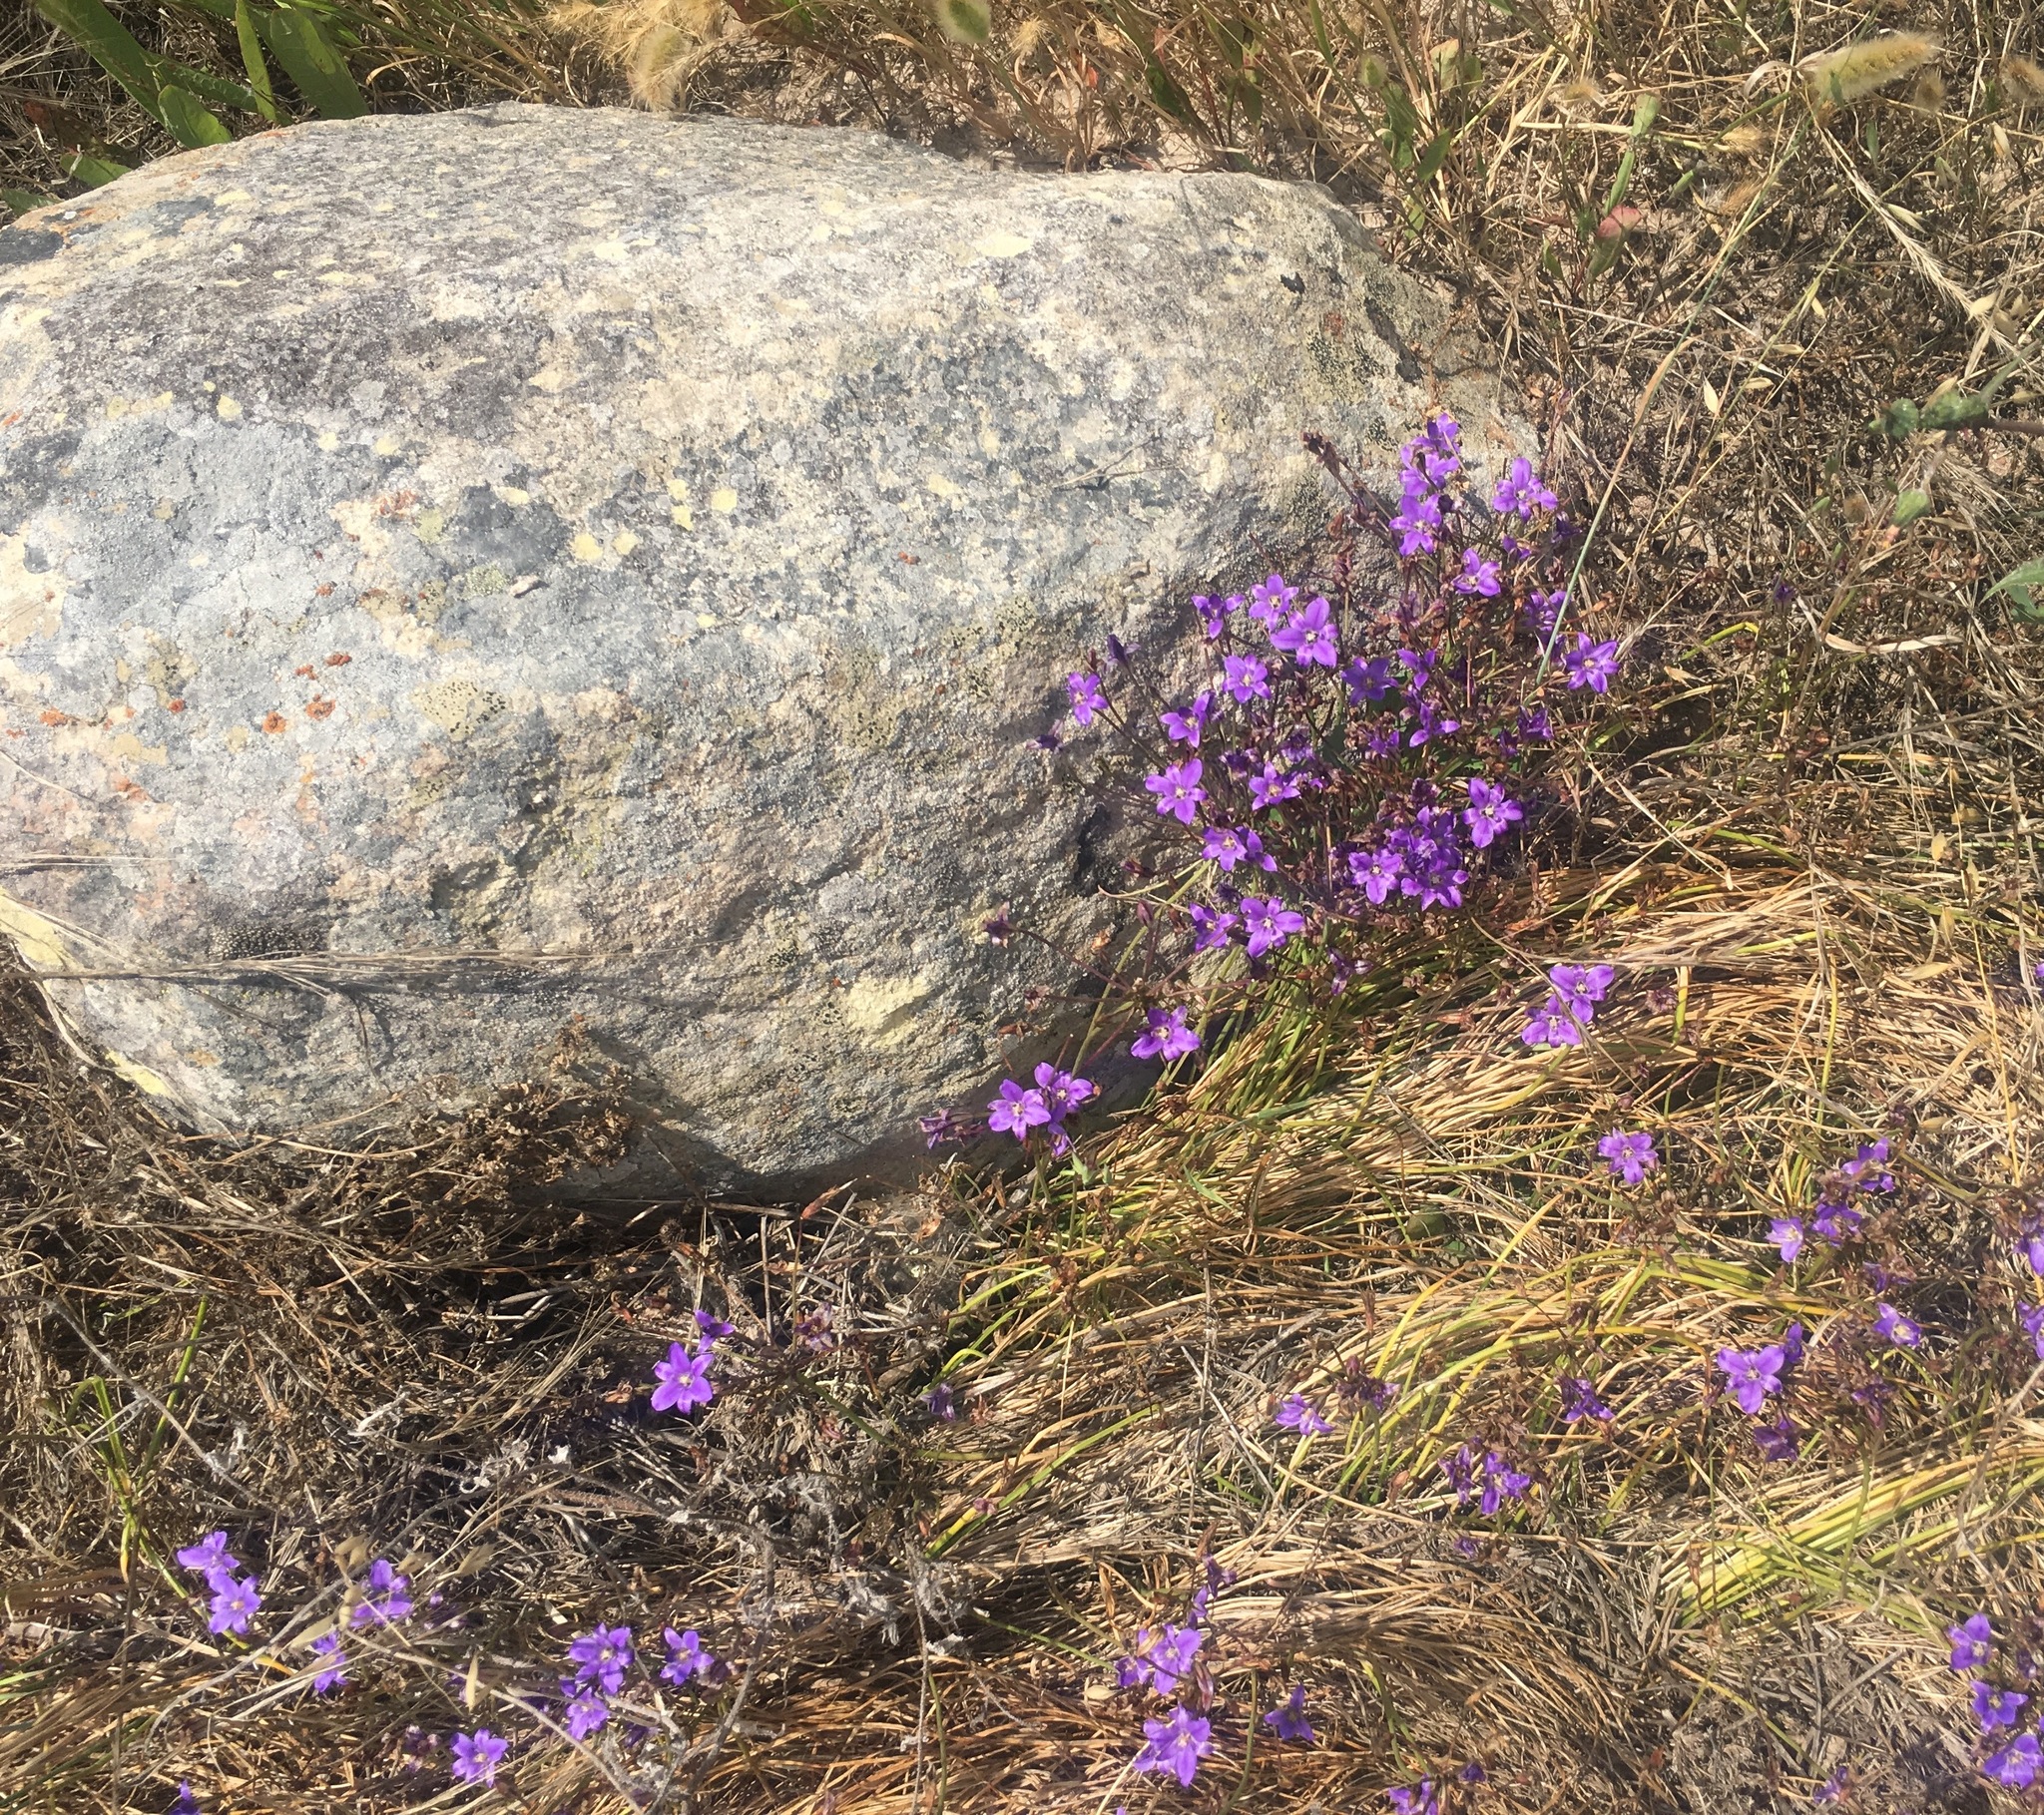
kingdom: Plantae
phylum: Tracheophyta
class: Liliopsida
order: Asparagales
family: Asparagaceae
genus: Brodiaea
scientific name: Brodiaea kinkiensis
